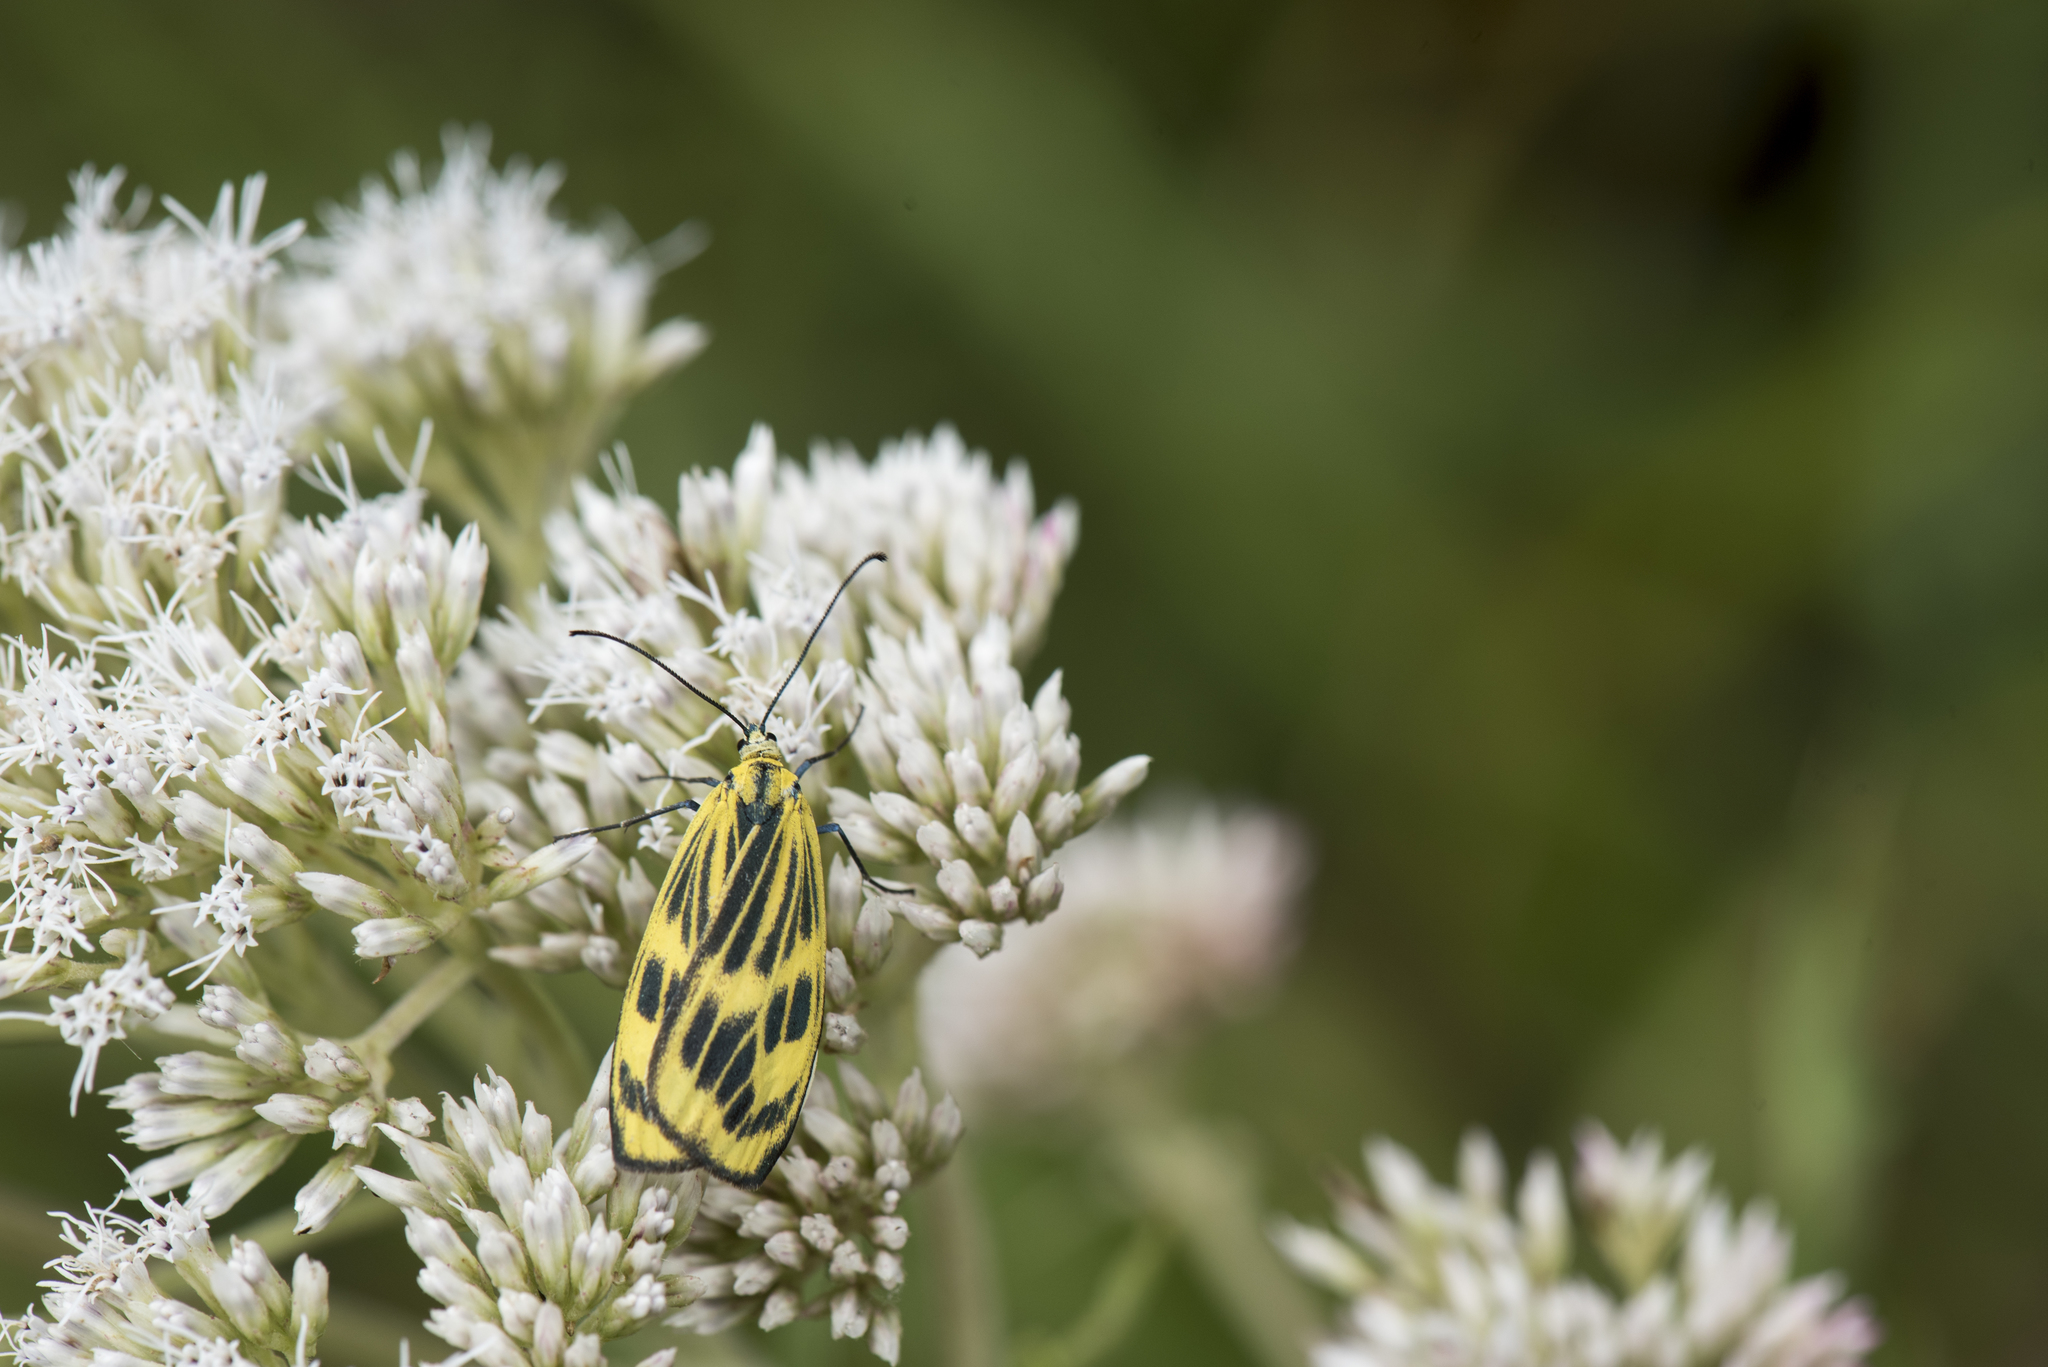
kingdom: Animalia
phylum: Arthropoda
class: Insecta
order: Lepidoptera
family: Zygaenidae
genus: Soritia
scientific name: Soritia choui
